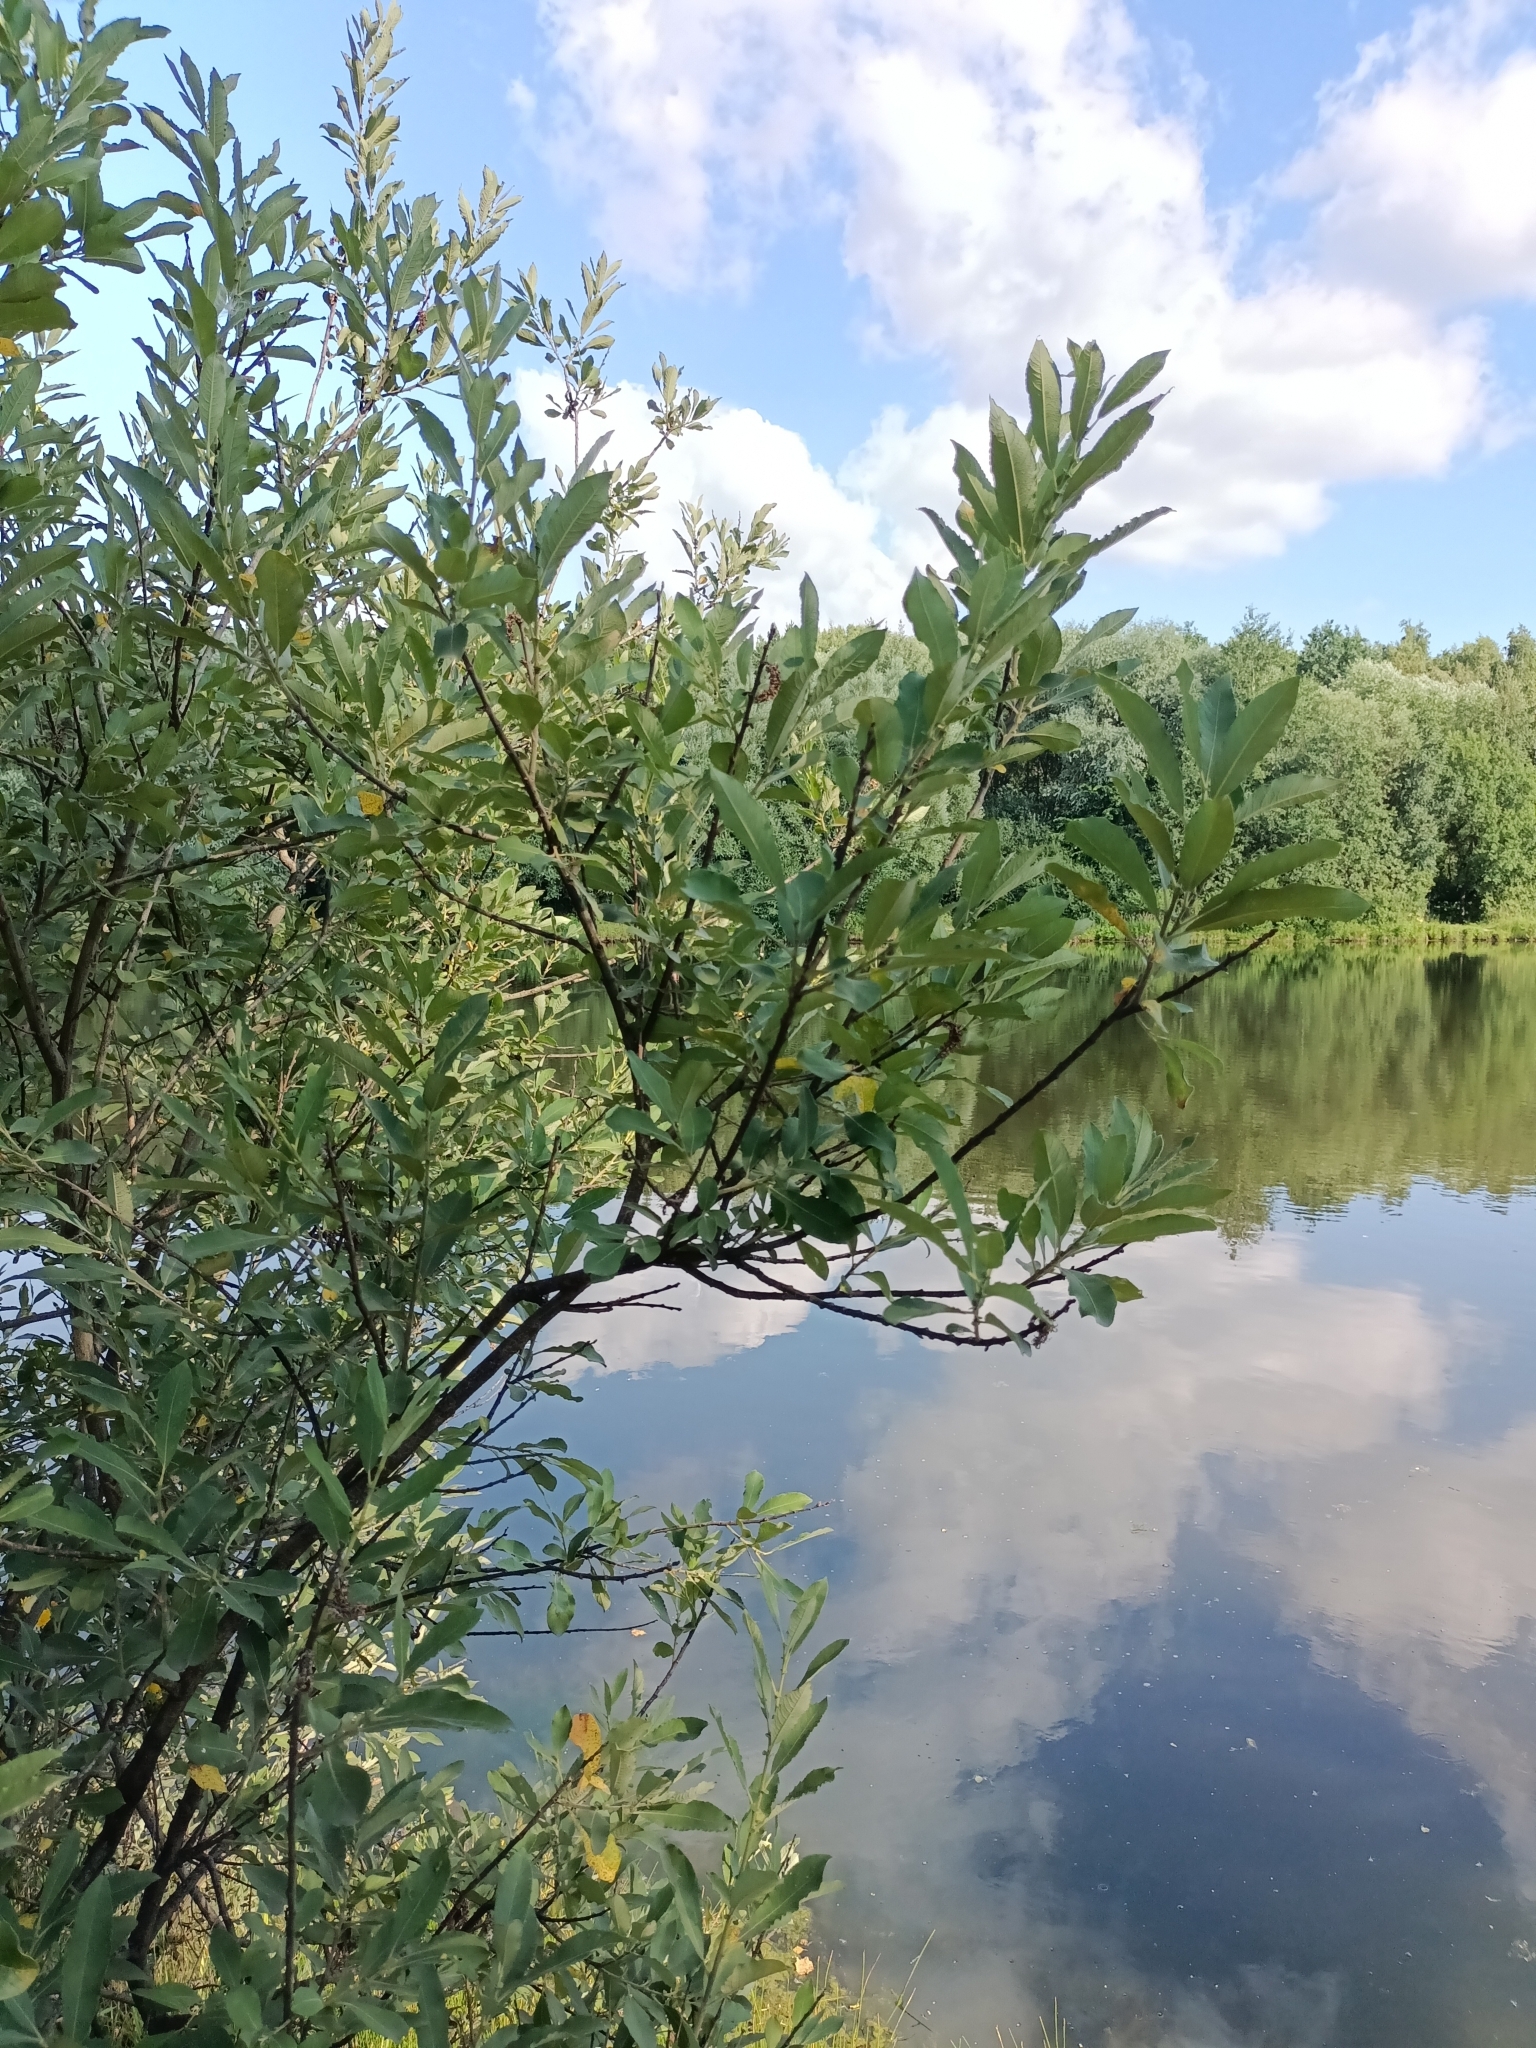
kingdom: Plantae
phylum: Tracheophyta
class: Magnoliopsida
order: Malpighiales
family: Salicaceae
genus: Salix
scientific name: Salix cinerea
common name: Common sallow
